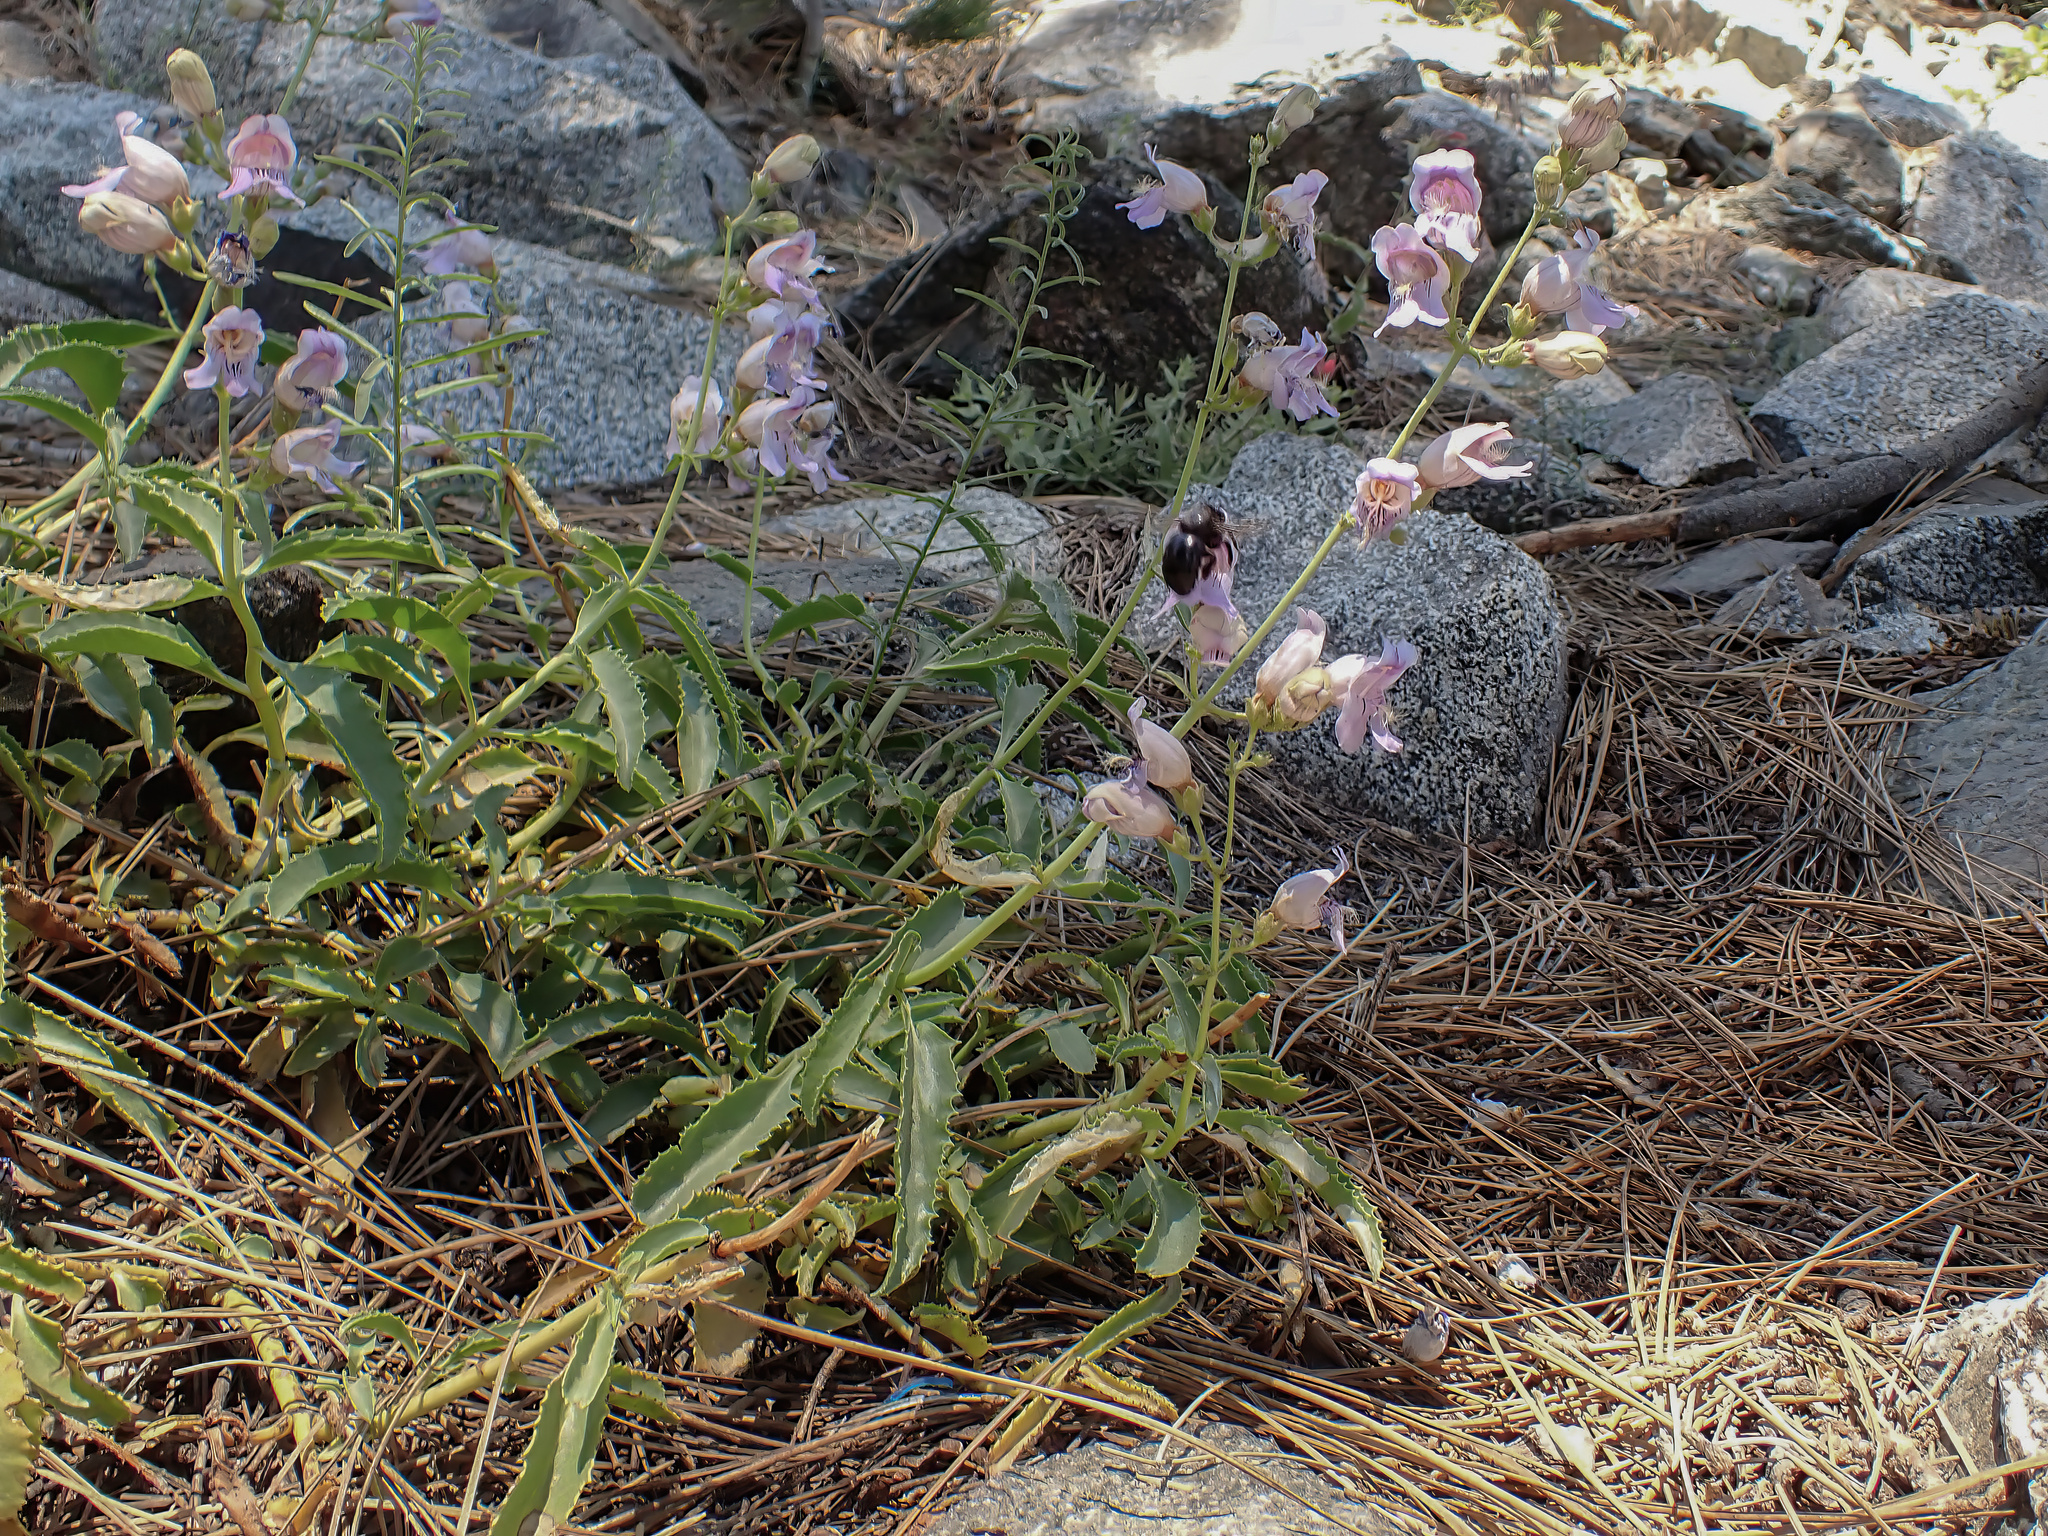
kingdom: Plantae
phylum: Tracheophyta
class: Magnoliopsida
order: Lamiales
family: Plantaginaceae
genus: Penstemon
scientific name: Penstemon grinnellii
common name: Grinnell's beardtongue
